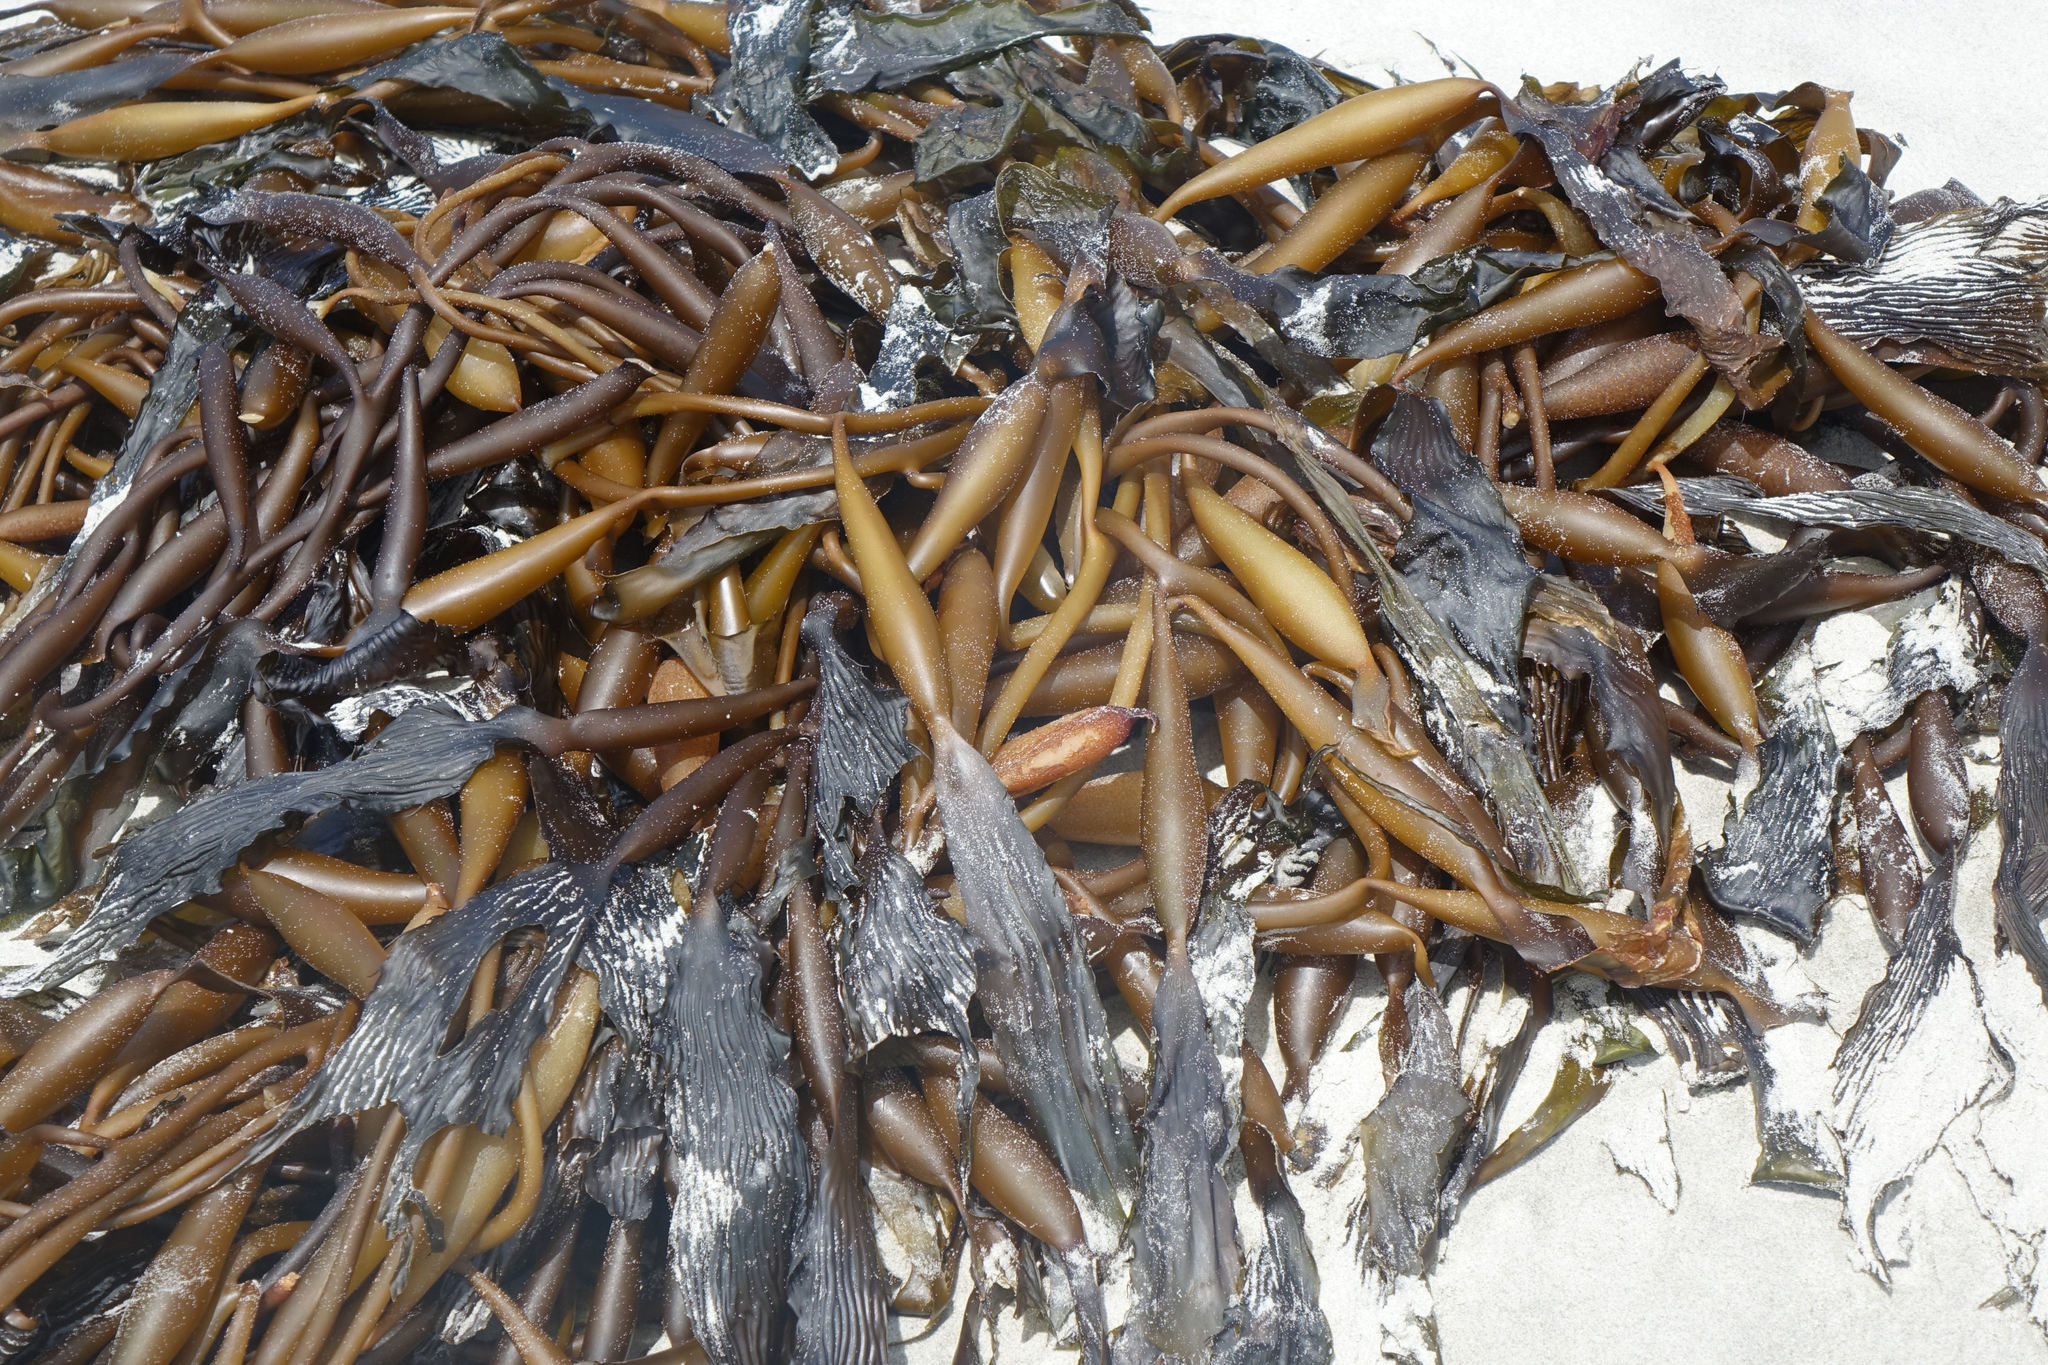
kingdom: Chromista
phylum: Ochrophyta
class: Phaeophyceae
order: Laminariales
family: Laminariaceae
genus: Macrocystis
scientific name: Macrocystis pyrifera
